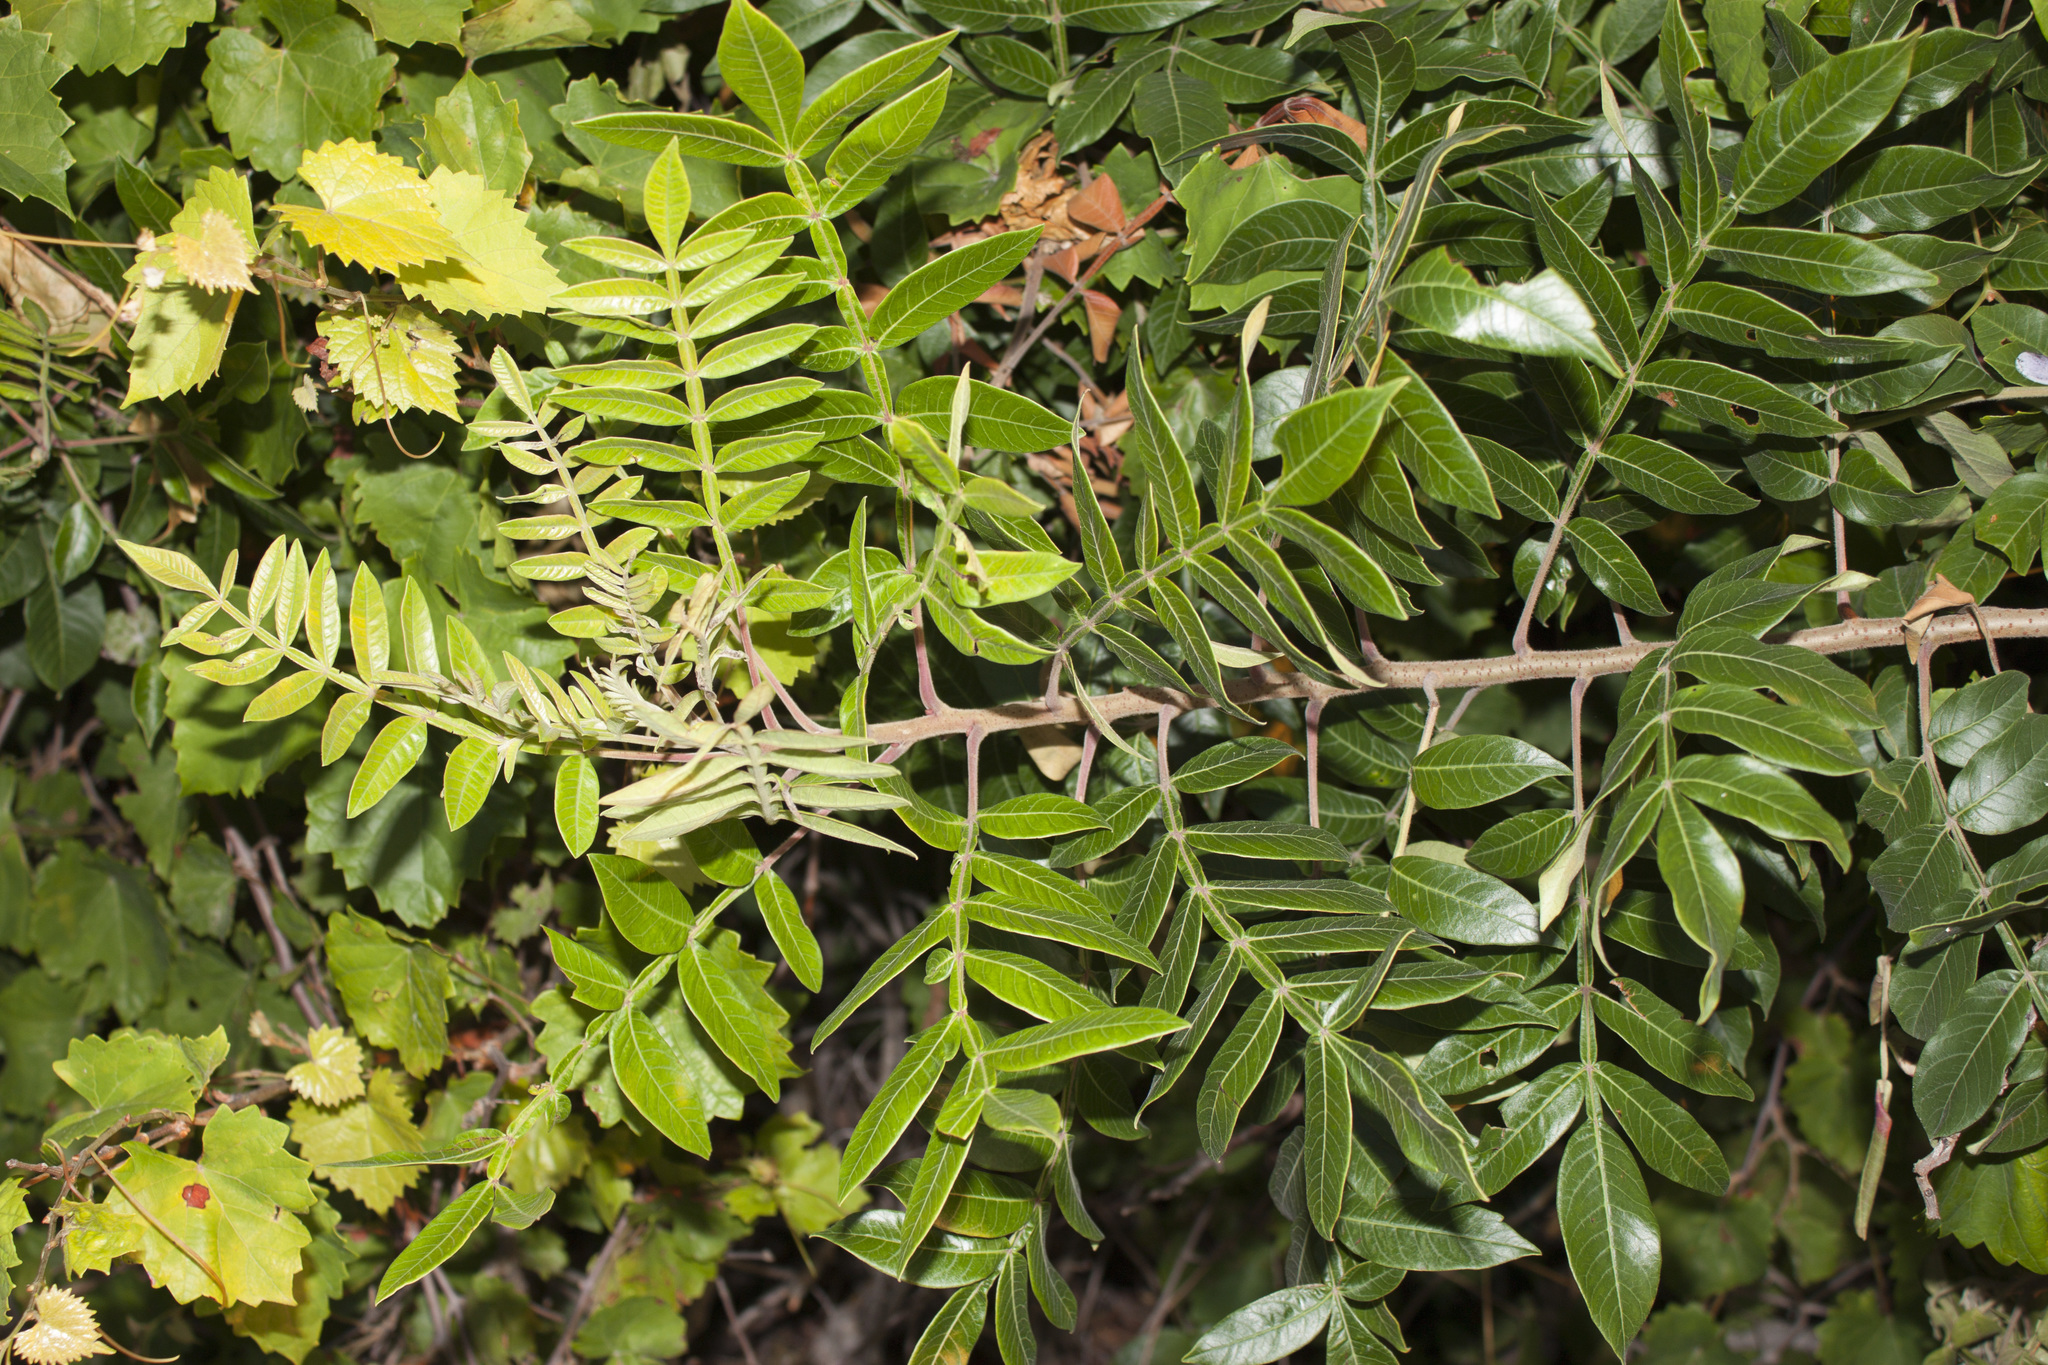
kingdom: Plantae
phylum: Tracheophyta
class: Magnoliopsida
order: Sapindales
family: Anacardiaceae
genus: Rhus
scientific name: Rhus copallina
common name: Shining sumac
